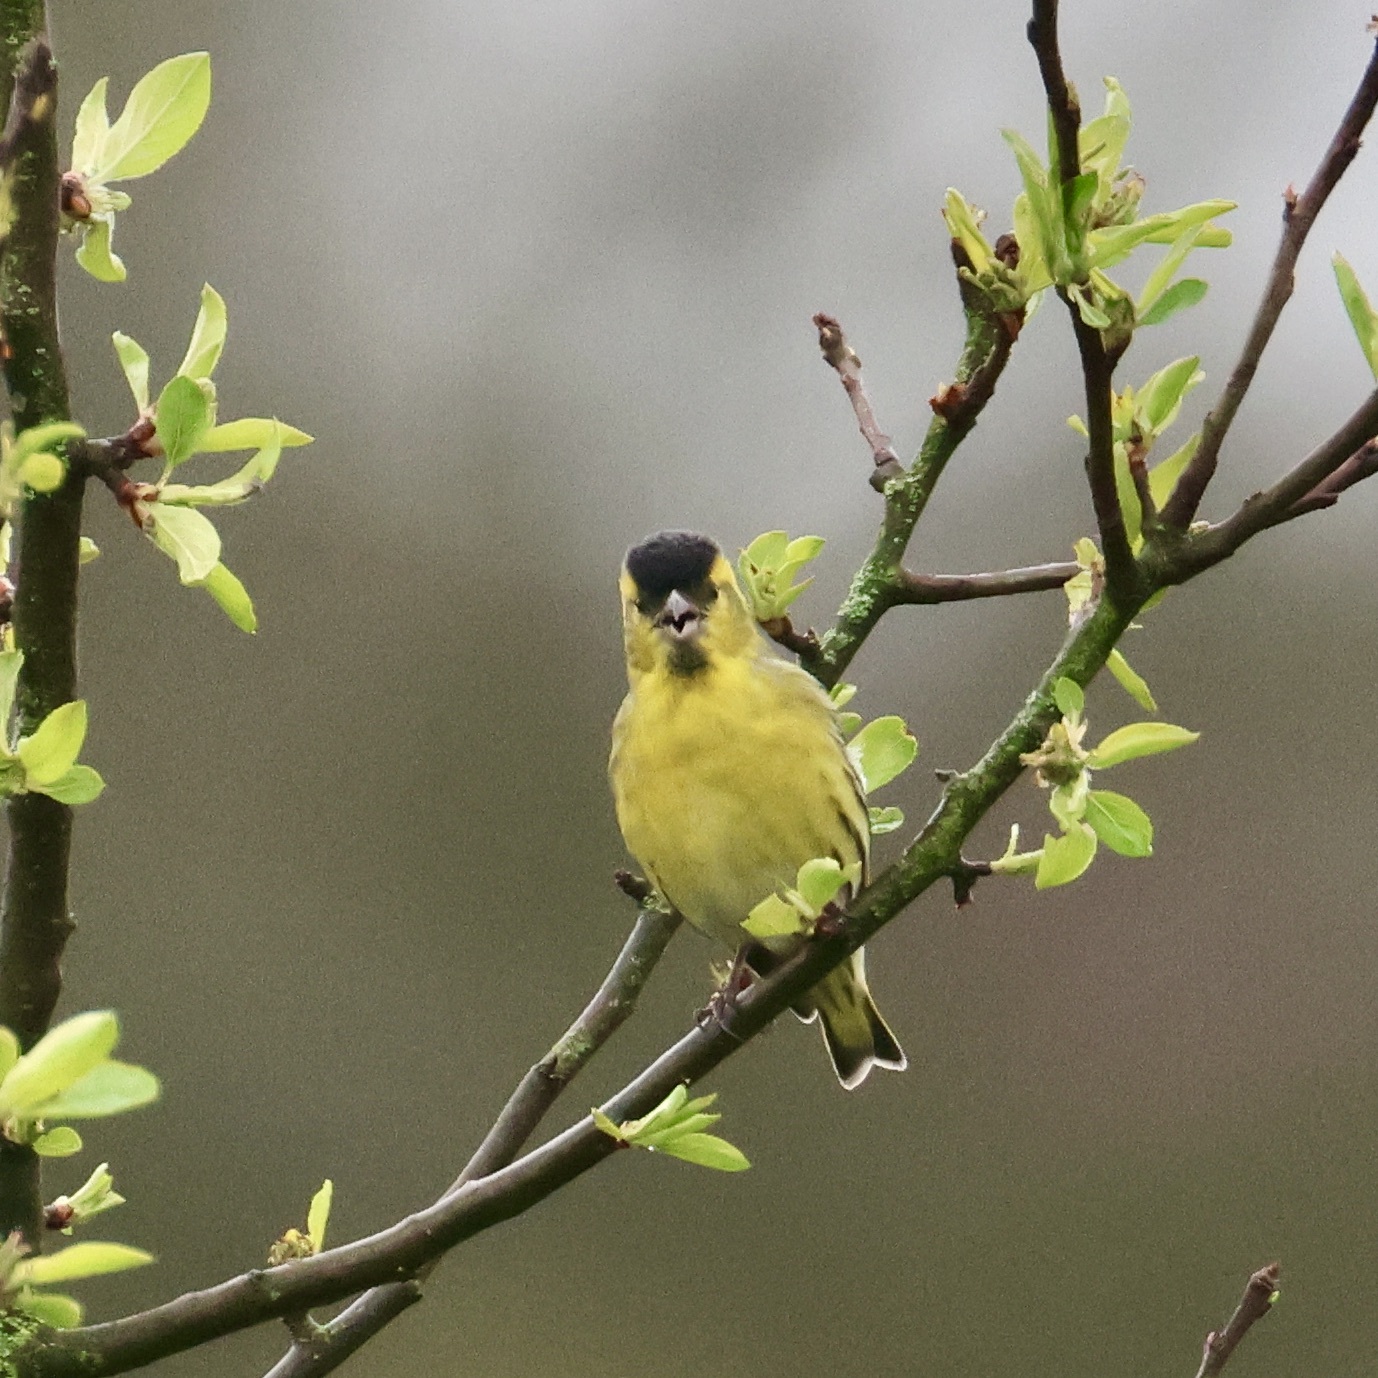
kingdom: Animalia
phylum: Chordata
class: Aves
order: Passeriformes
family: Fringillidae
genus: Spinus
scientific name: Spinus spinus
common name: Eurasian siskin
